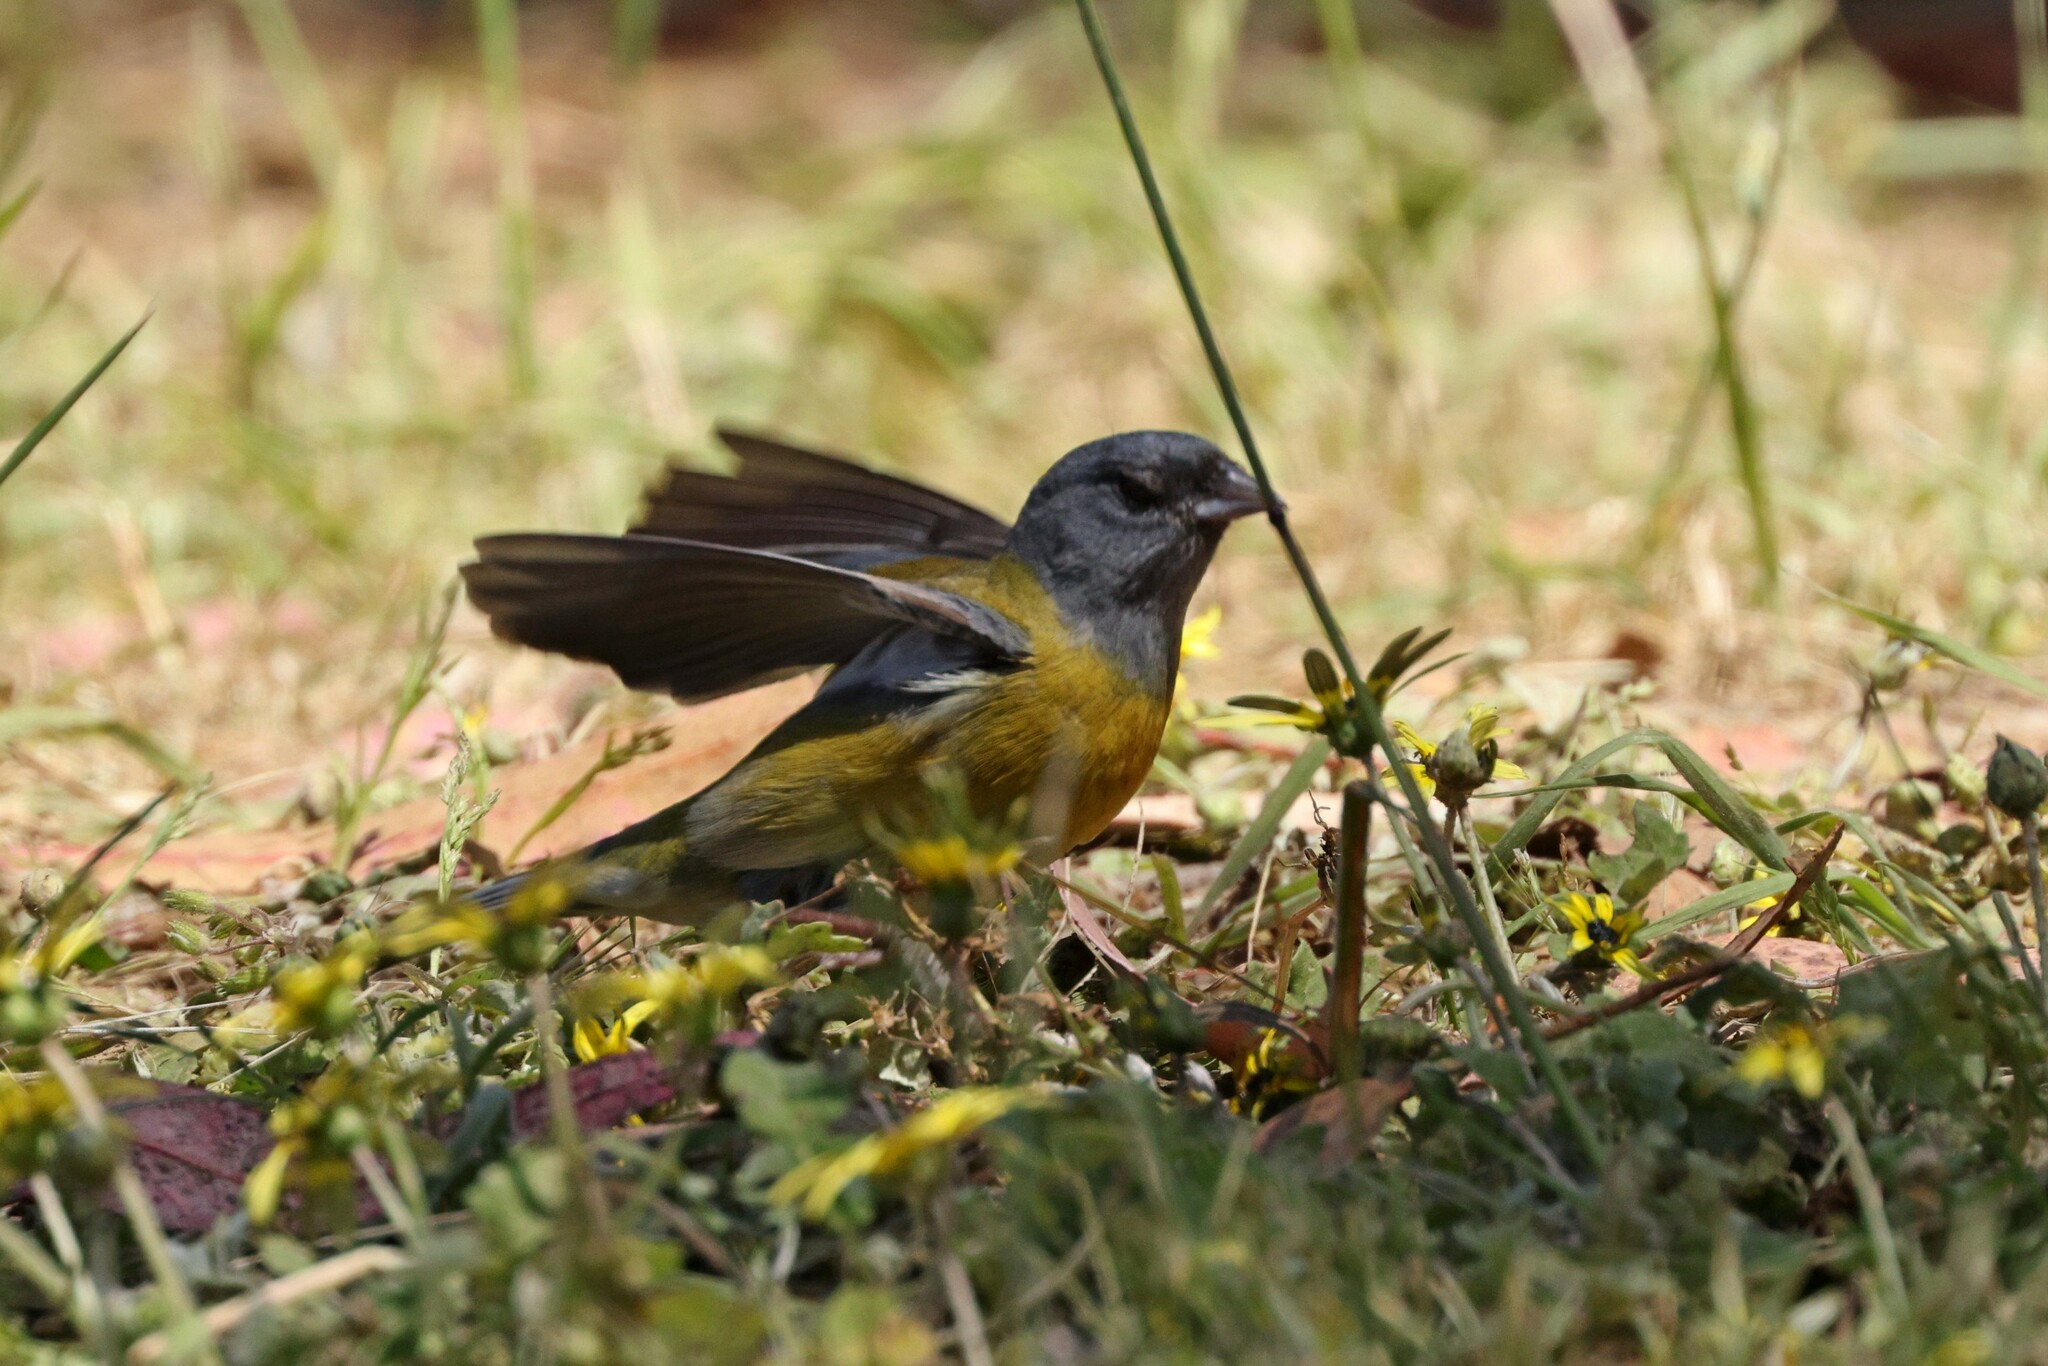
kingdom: Animalia
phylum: Chordata
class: Aves
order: Passeriformes
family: Thraupidae
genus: Phrygilus
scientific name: Phrygilus gayi
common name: Grey-hooded sierra finch
